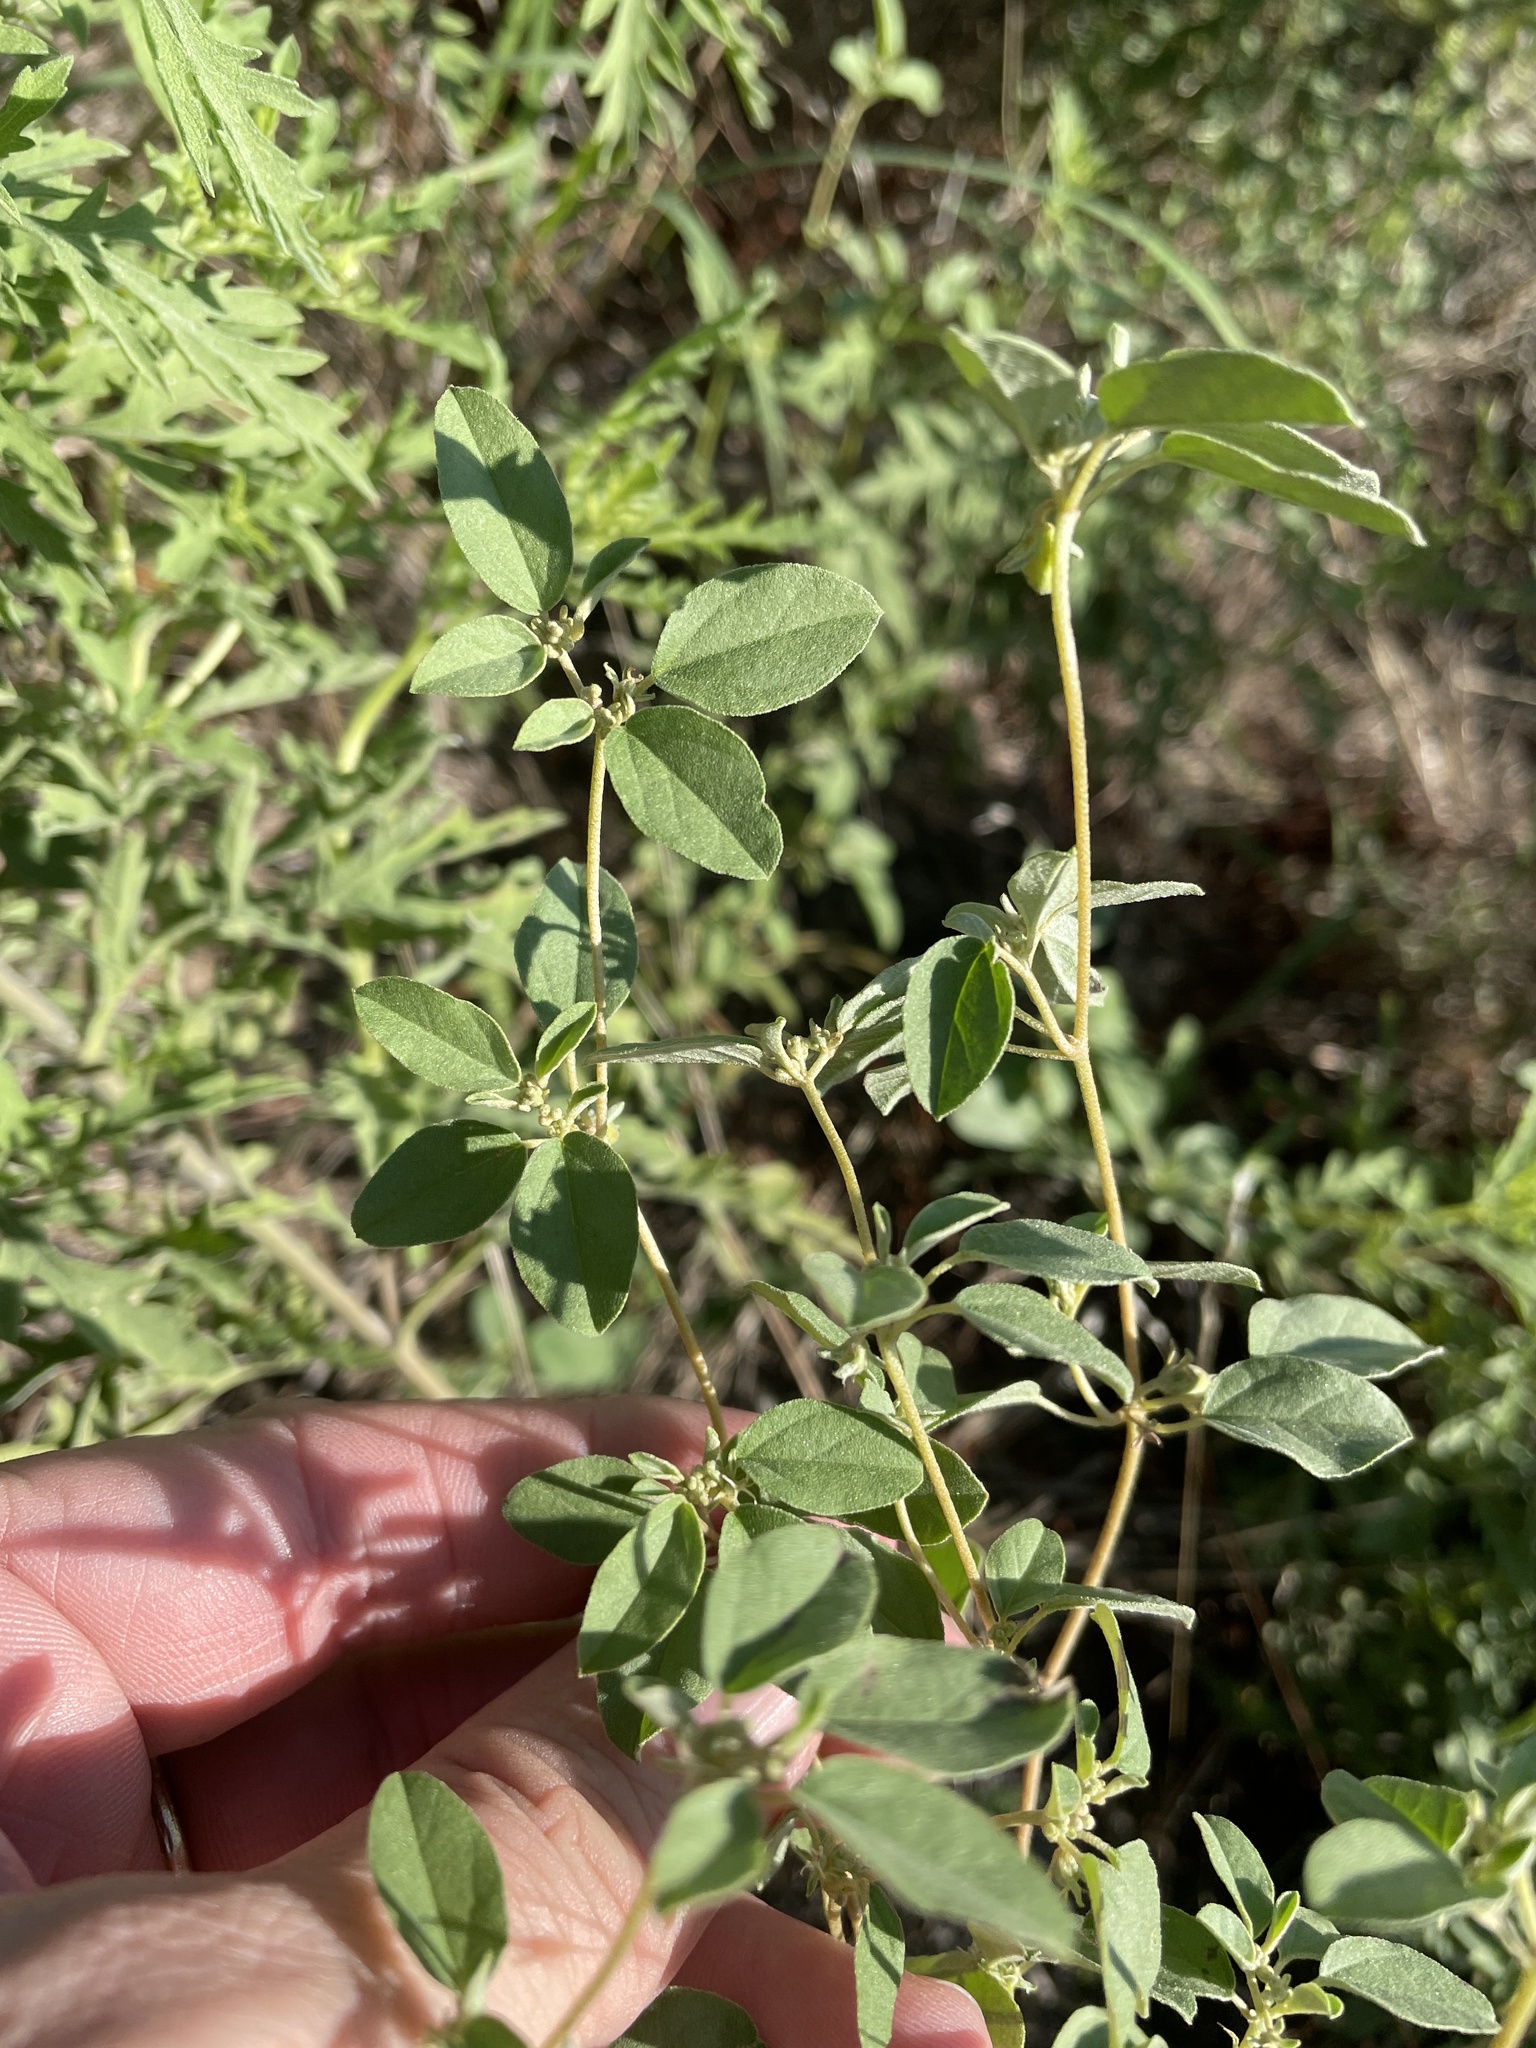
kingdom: Plantae
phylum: Tracheophyta
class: Magnoliopsida
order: Malpighiales
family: Euphorbiaceae
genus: Croton
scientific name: Croton monanthogynus
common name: One-seed croton
